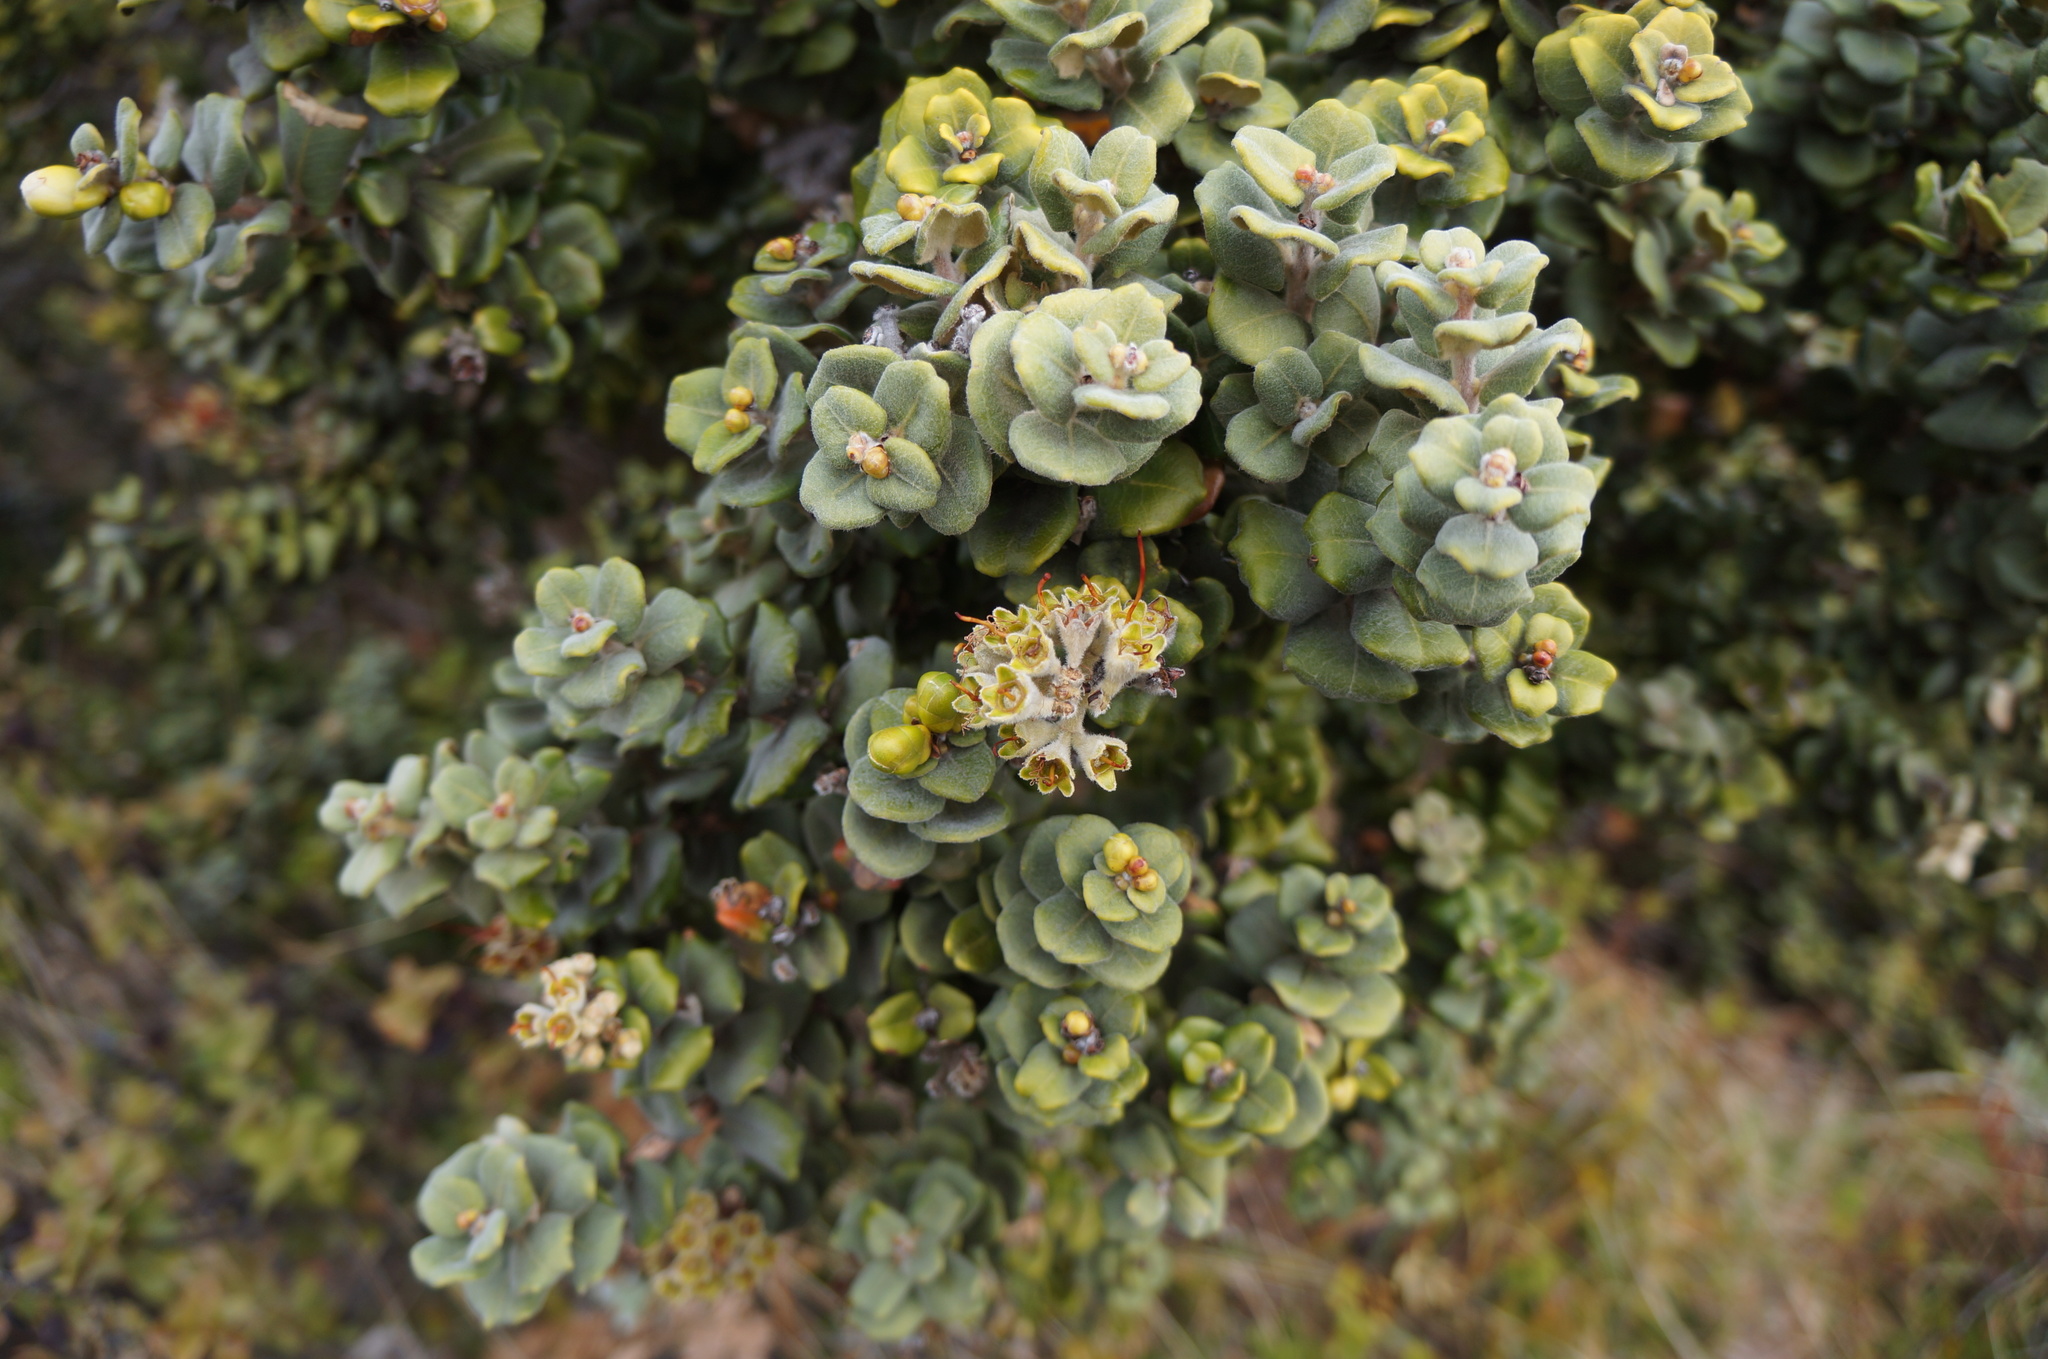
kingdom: Plantae
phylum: Tracheophyta
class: Magnoliopsida
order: Myrtales
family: Myrtaceae
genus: Metrosideros
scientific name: Metrosideros polymorpha
